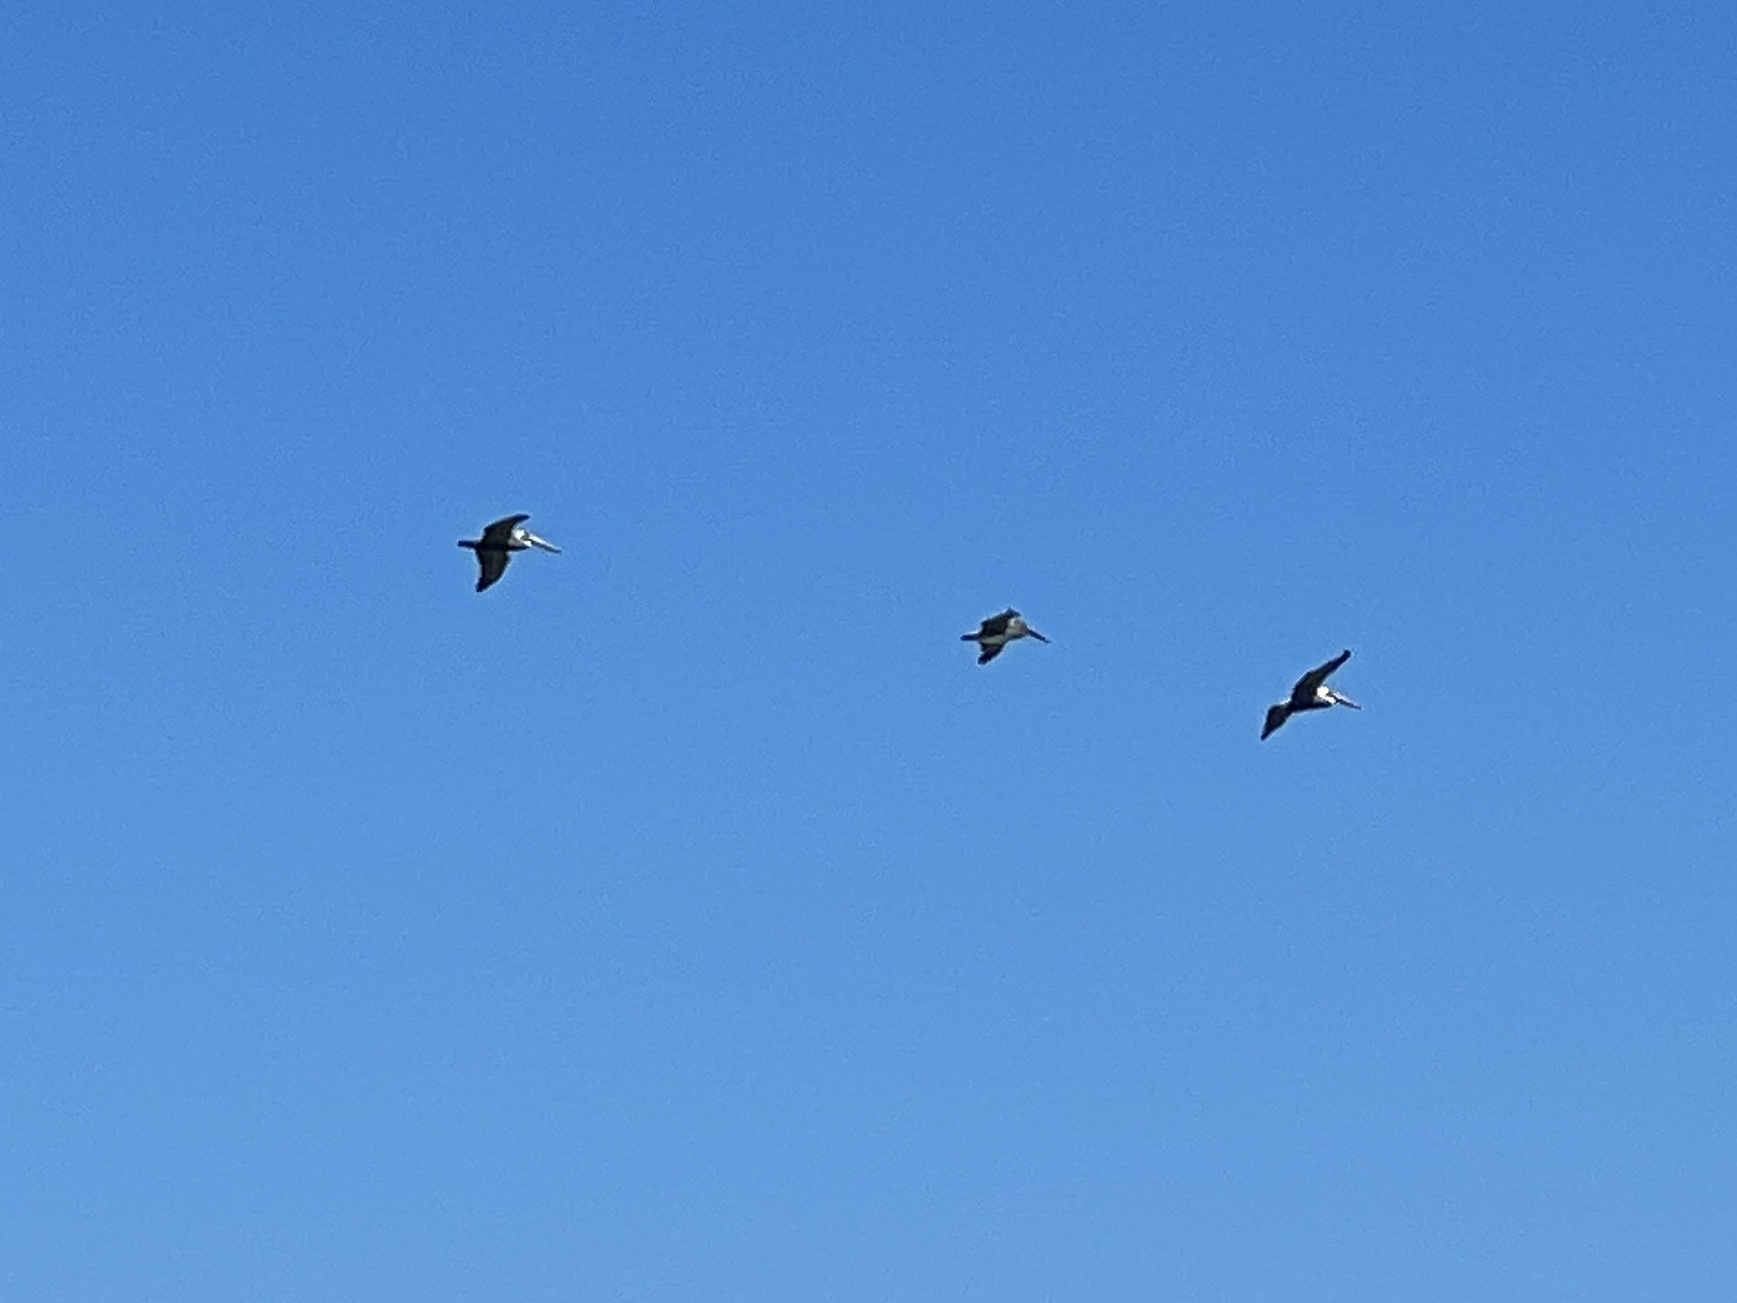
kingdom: Animalia
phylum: Chordata
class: Aves
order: Pelecaniformes
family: Pelecanidae
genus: Pelecanus
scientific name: Pelecanus occidentalis
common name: Brown pelican
